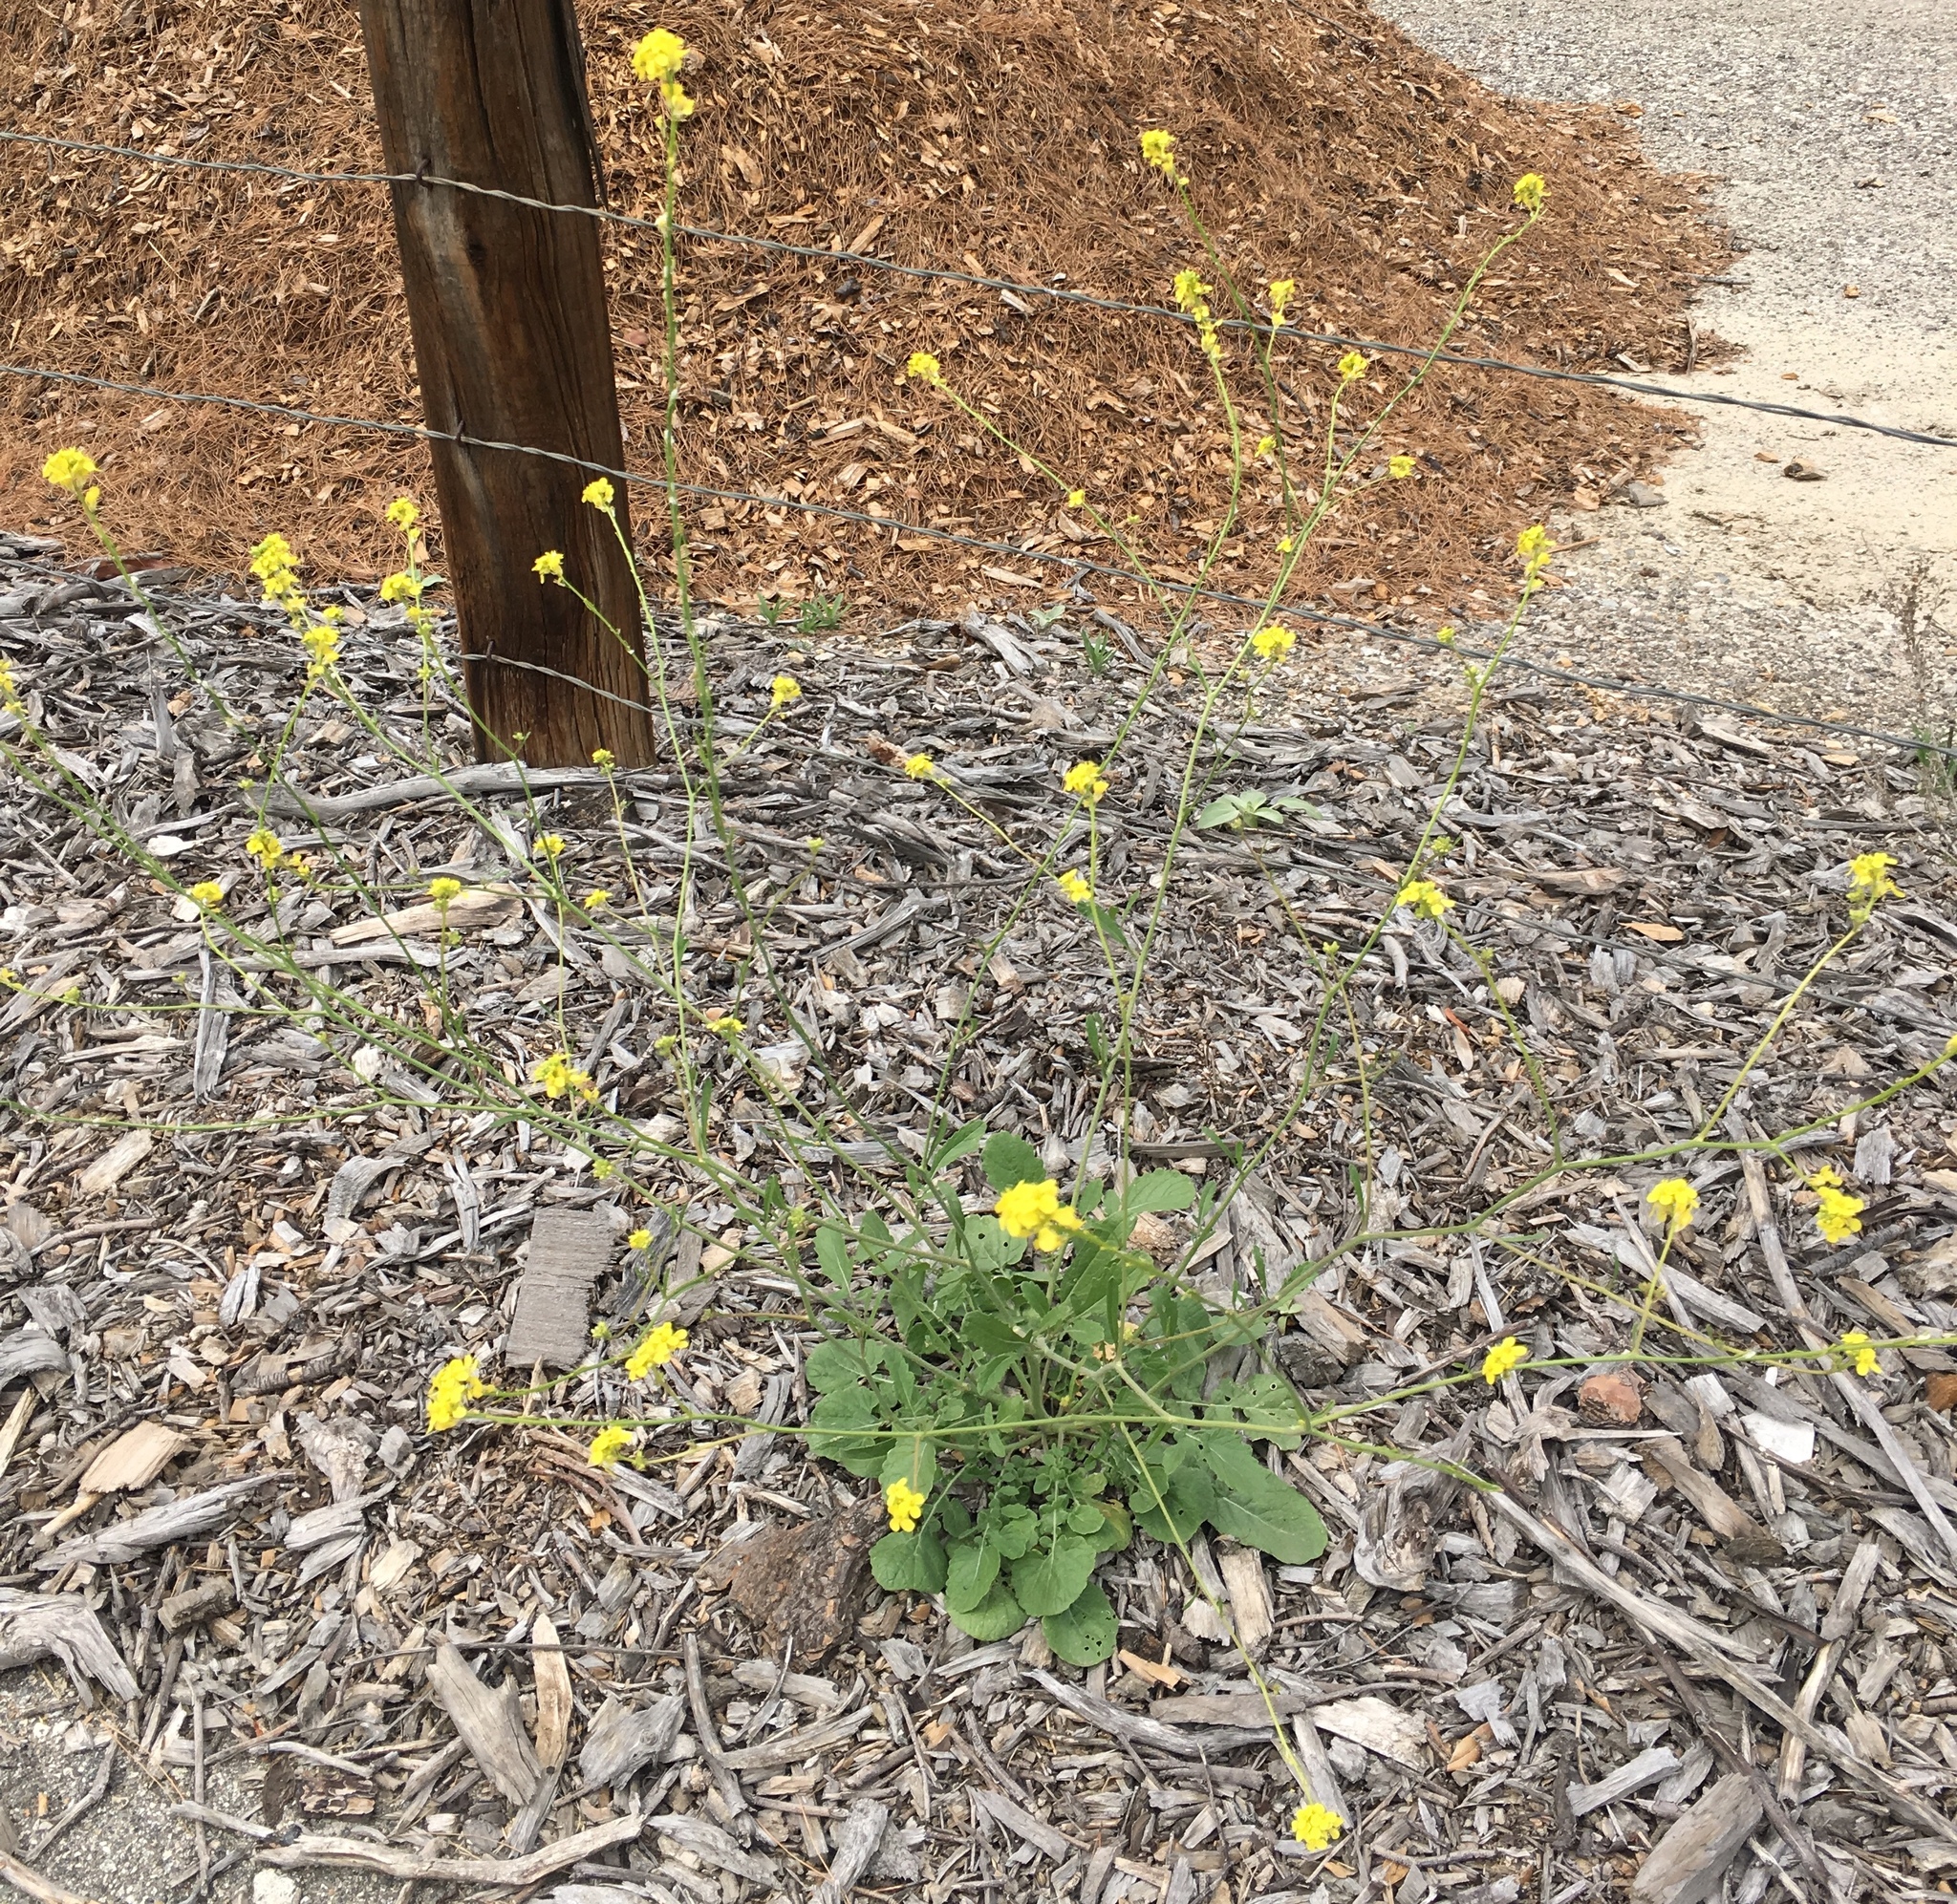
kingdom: Plantae
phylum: Tracheophyta
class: Magnoliopsida
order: Brassicales
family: Brassicaceae
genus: Hirschfeldia
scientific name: Hirschfeldia incana
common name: Hoary mustard
